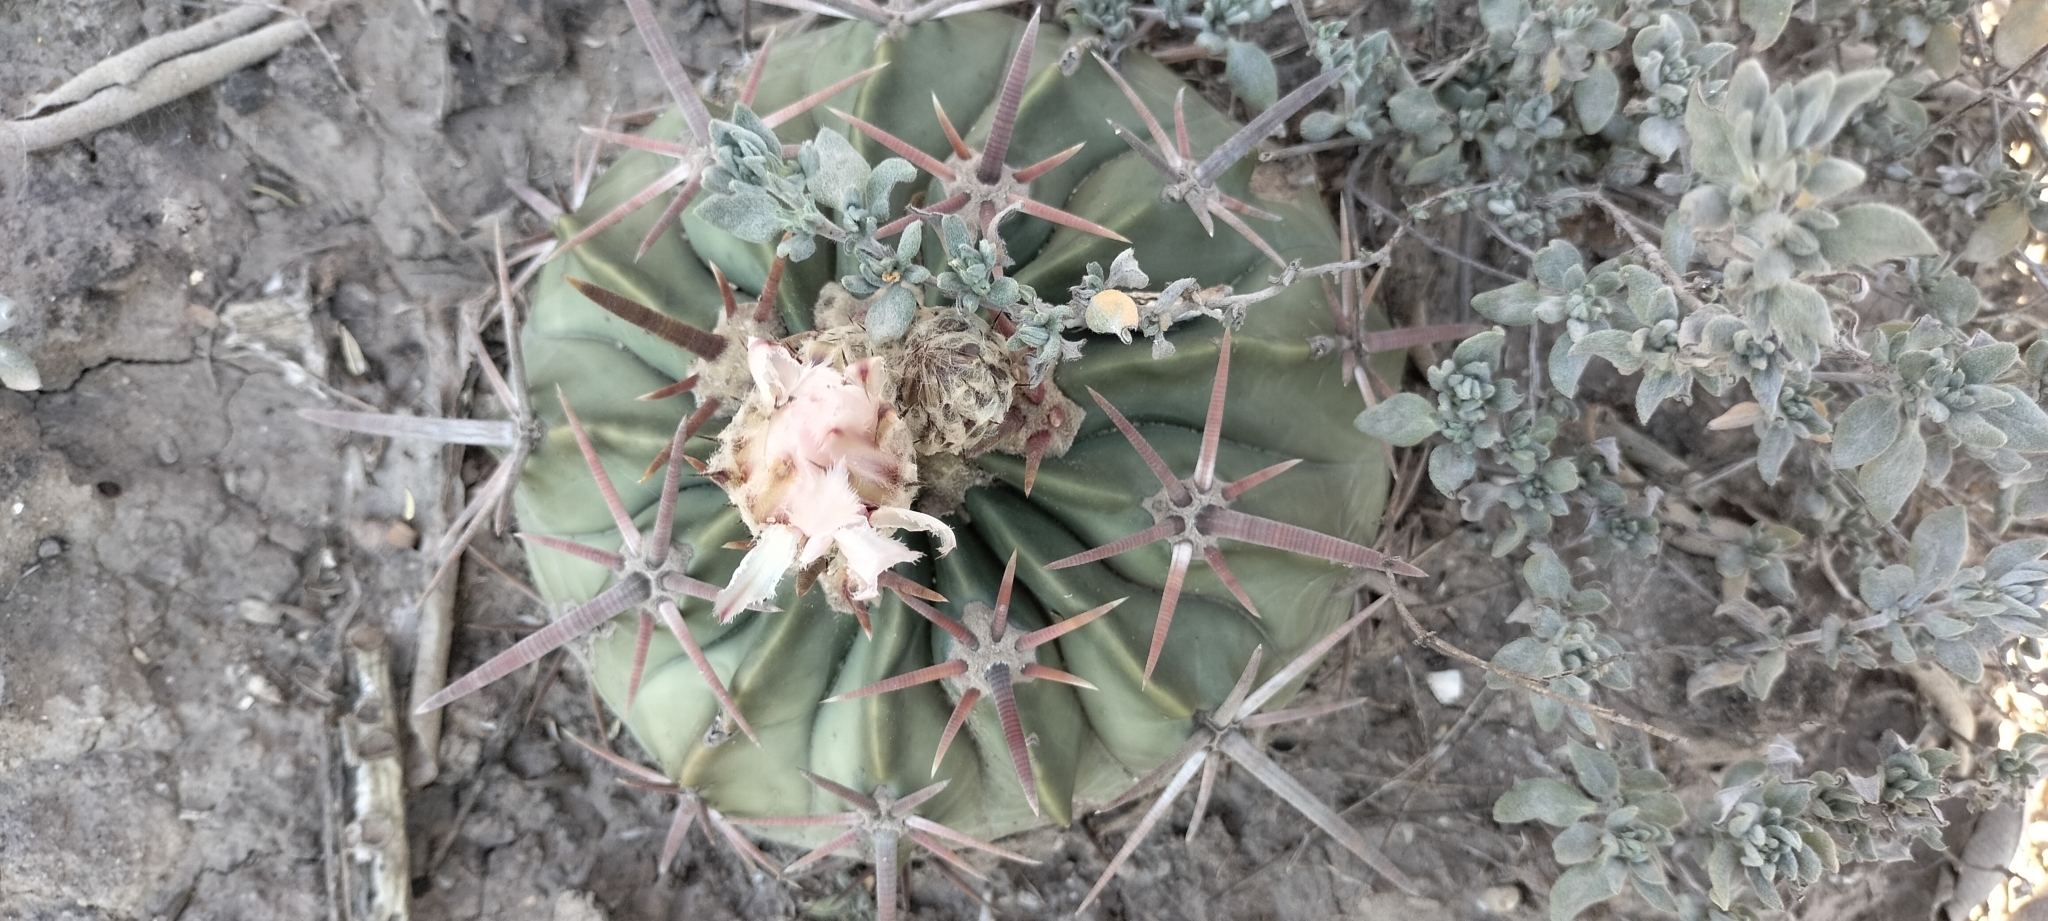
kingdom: Plantae
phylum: Tracheophyta
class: Magnoliopsida
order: Caryophyllales
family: Cactaceae
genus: Echinocactus
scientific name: Echinocactus texensis
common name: Devil's pincushion
